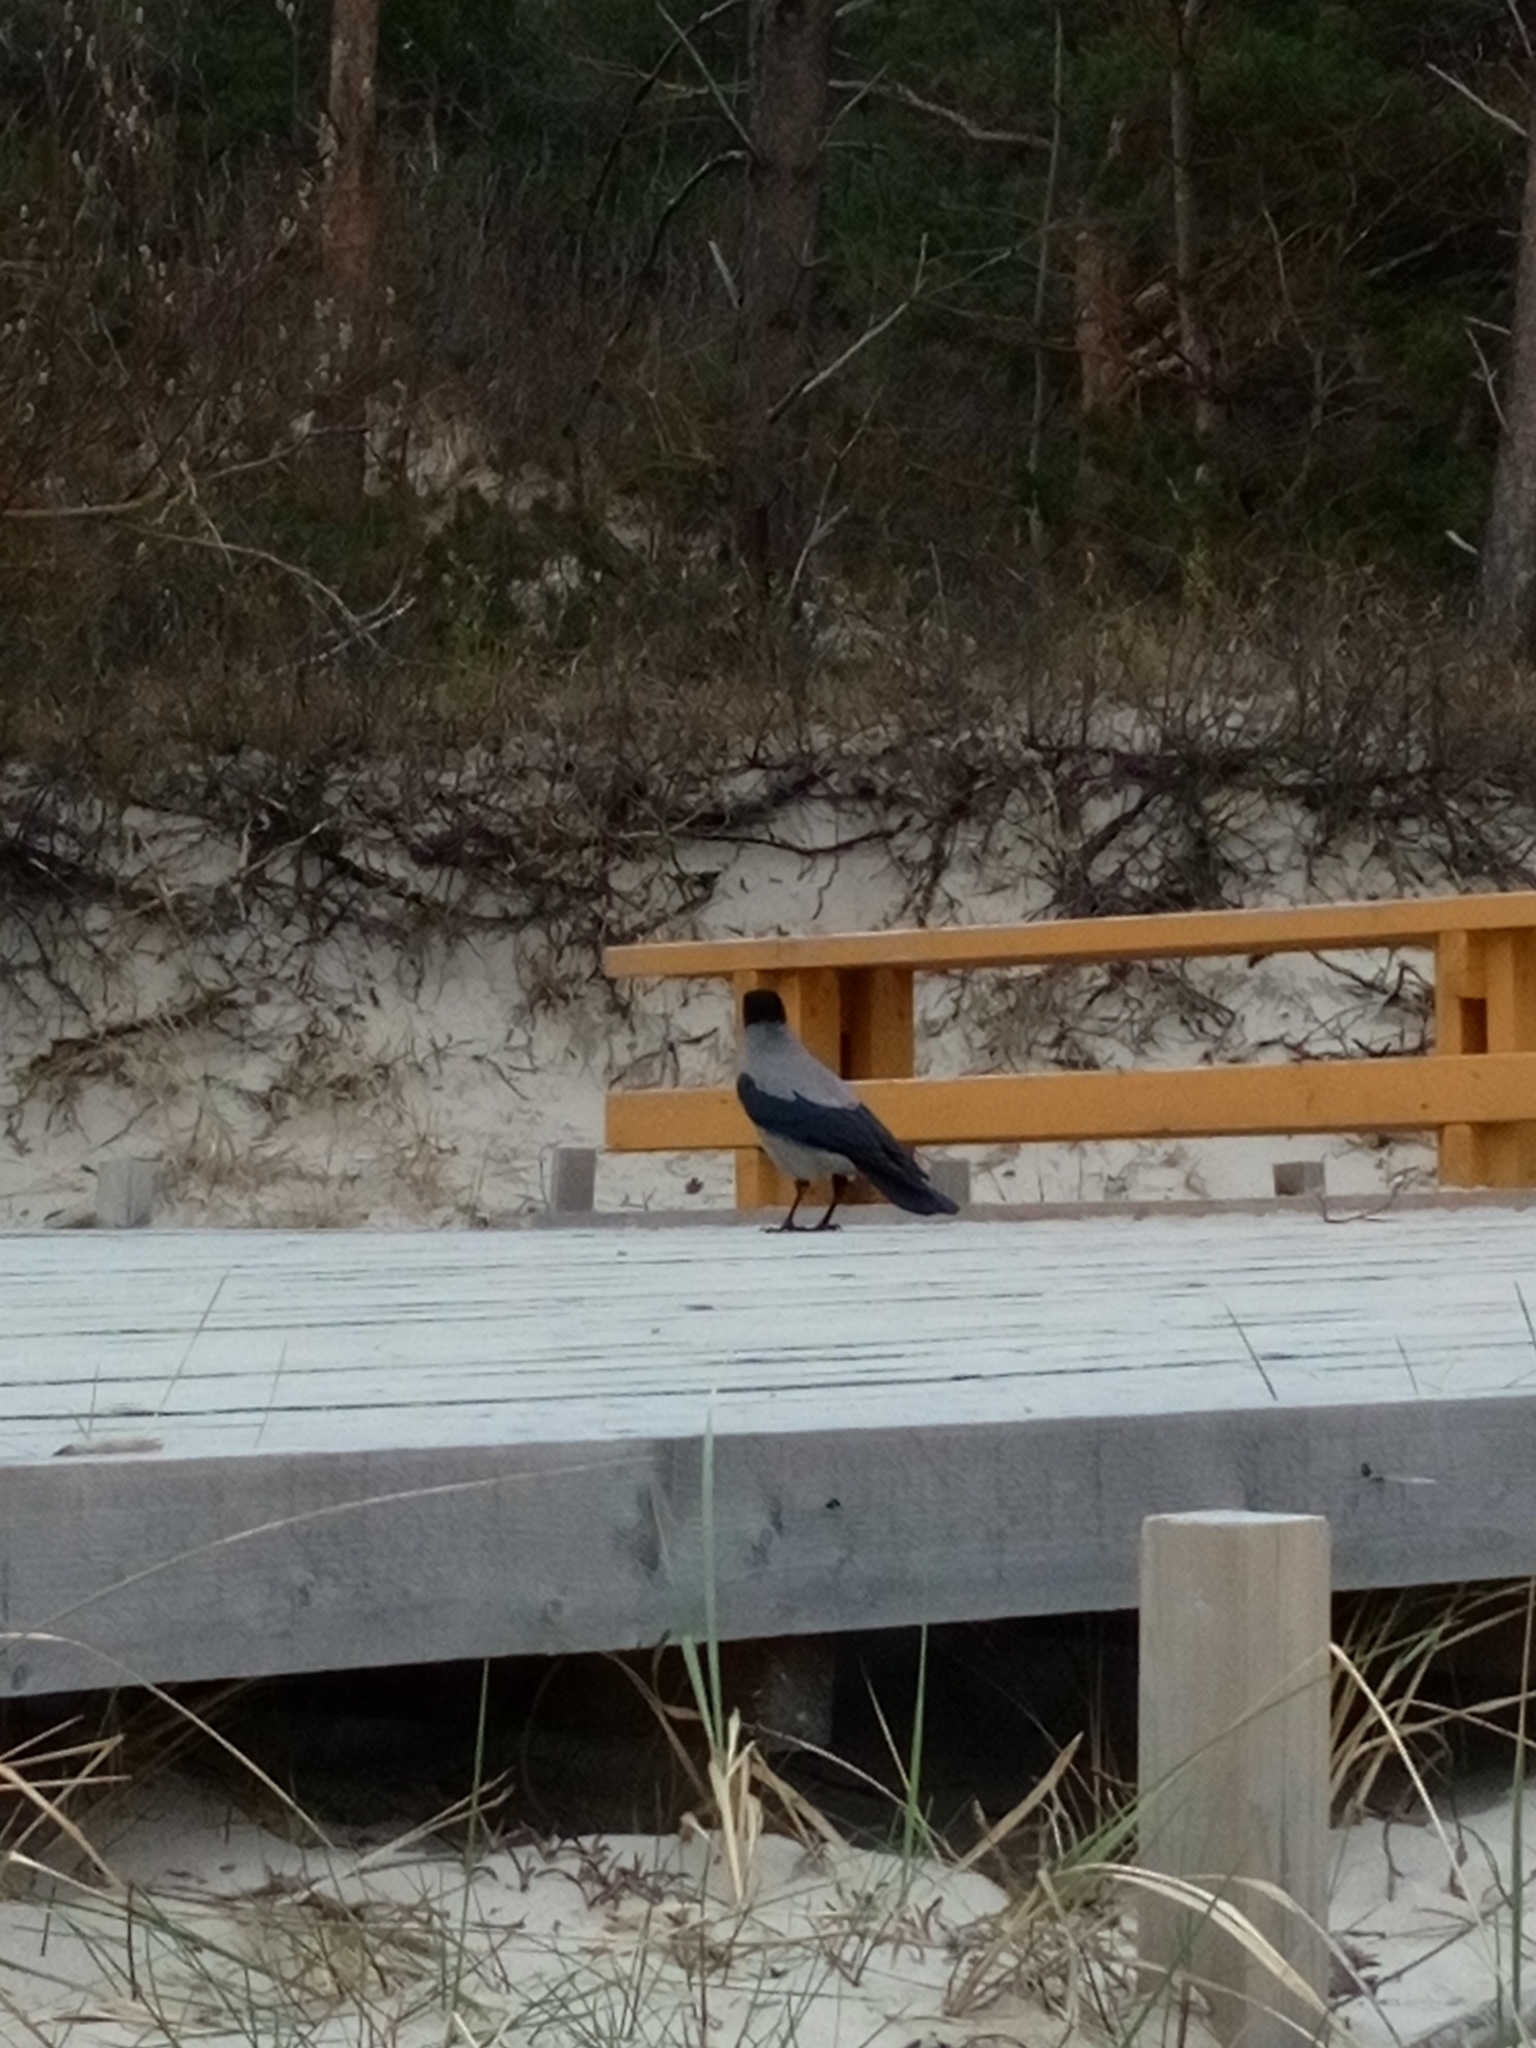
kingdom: Animalia
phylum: Chordata
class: Aves
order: Passeriformes
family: Corvidae
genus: Corvus
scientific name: Corvus cornix
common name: Hooded crow
